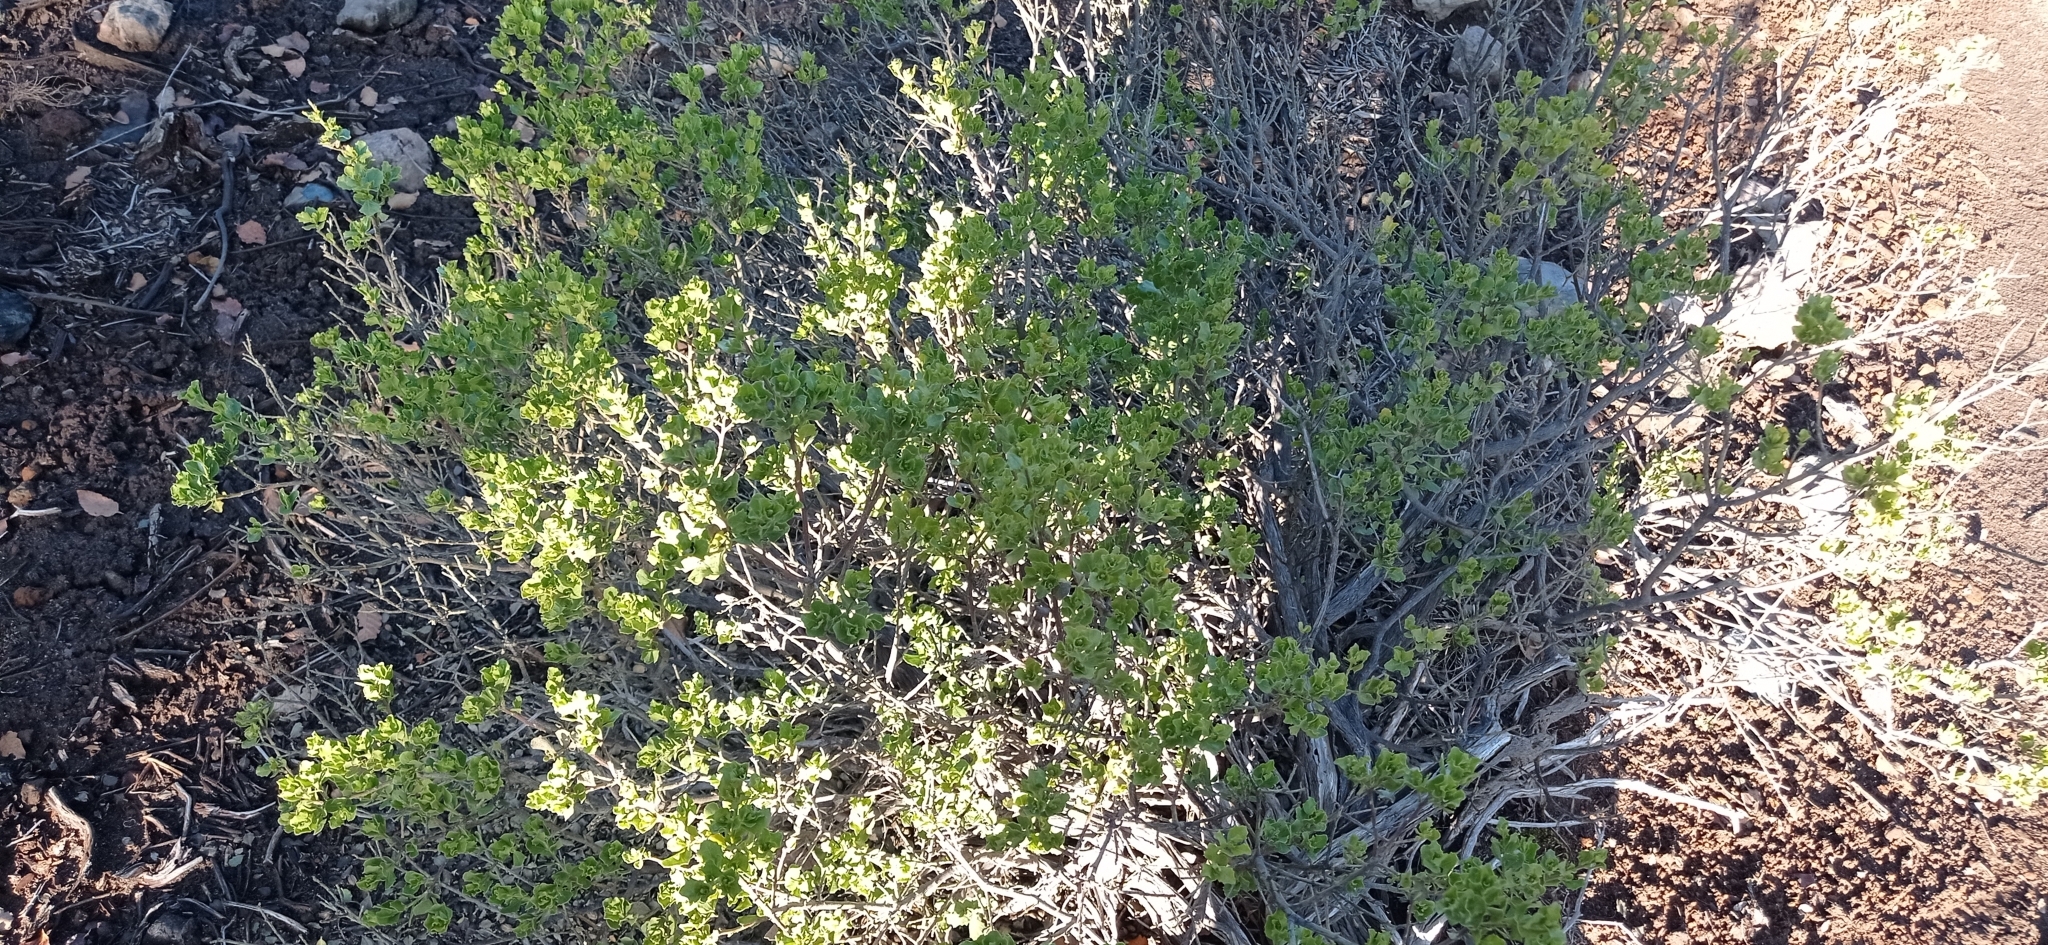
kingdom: Plantae
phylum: Tracheophyta
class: Magnoliopsida
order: Asterales
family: Asteraceae
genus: Baccharis
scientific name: Baccharis rhomboidalis
